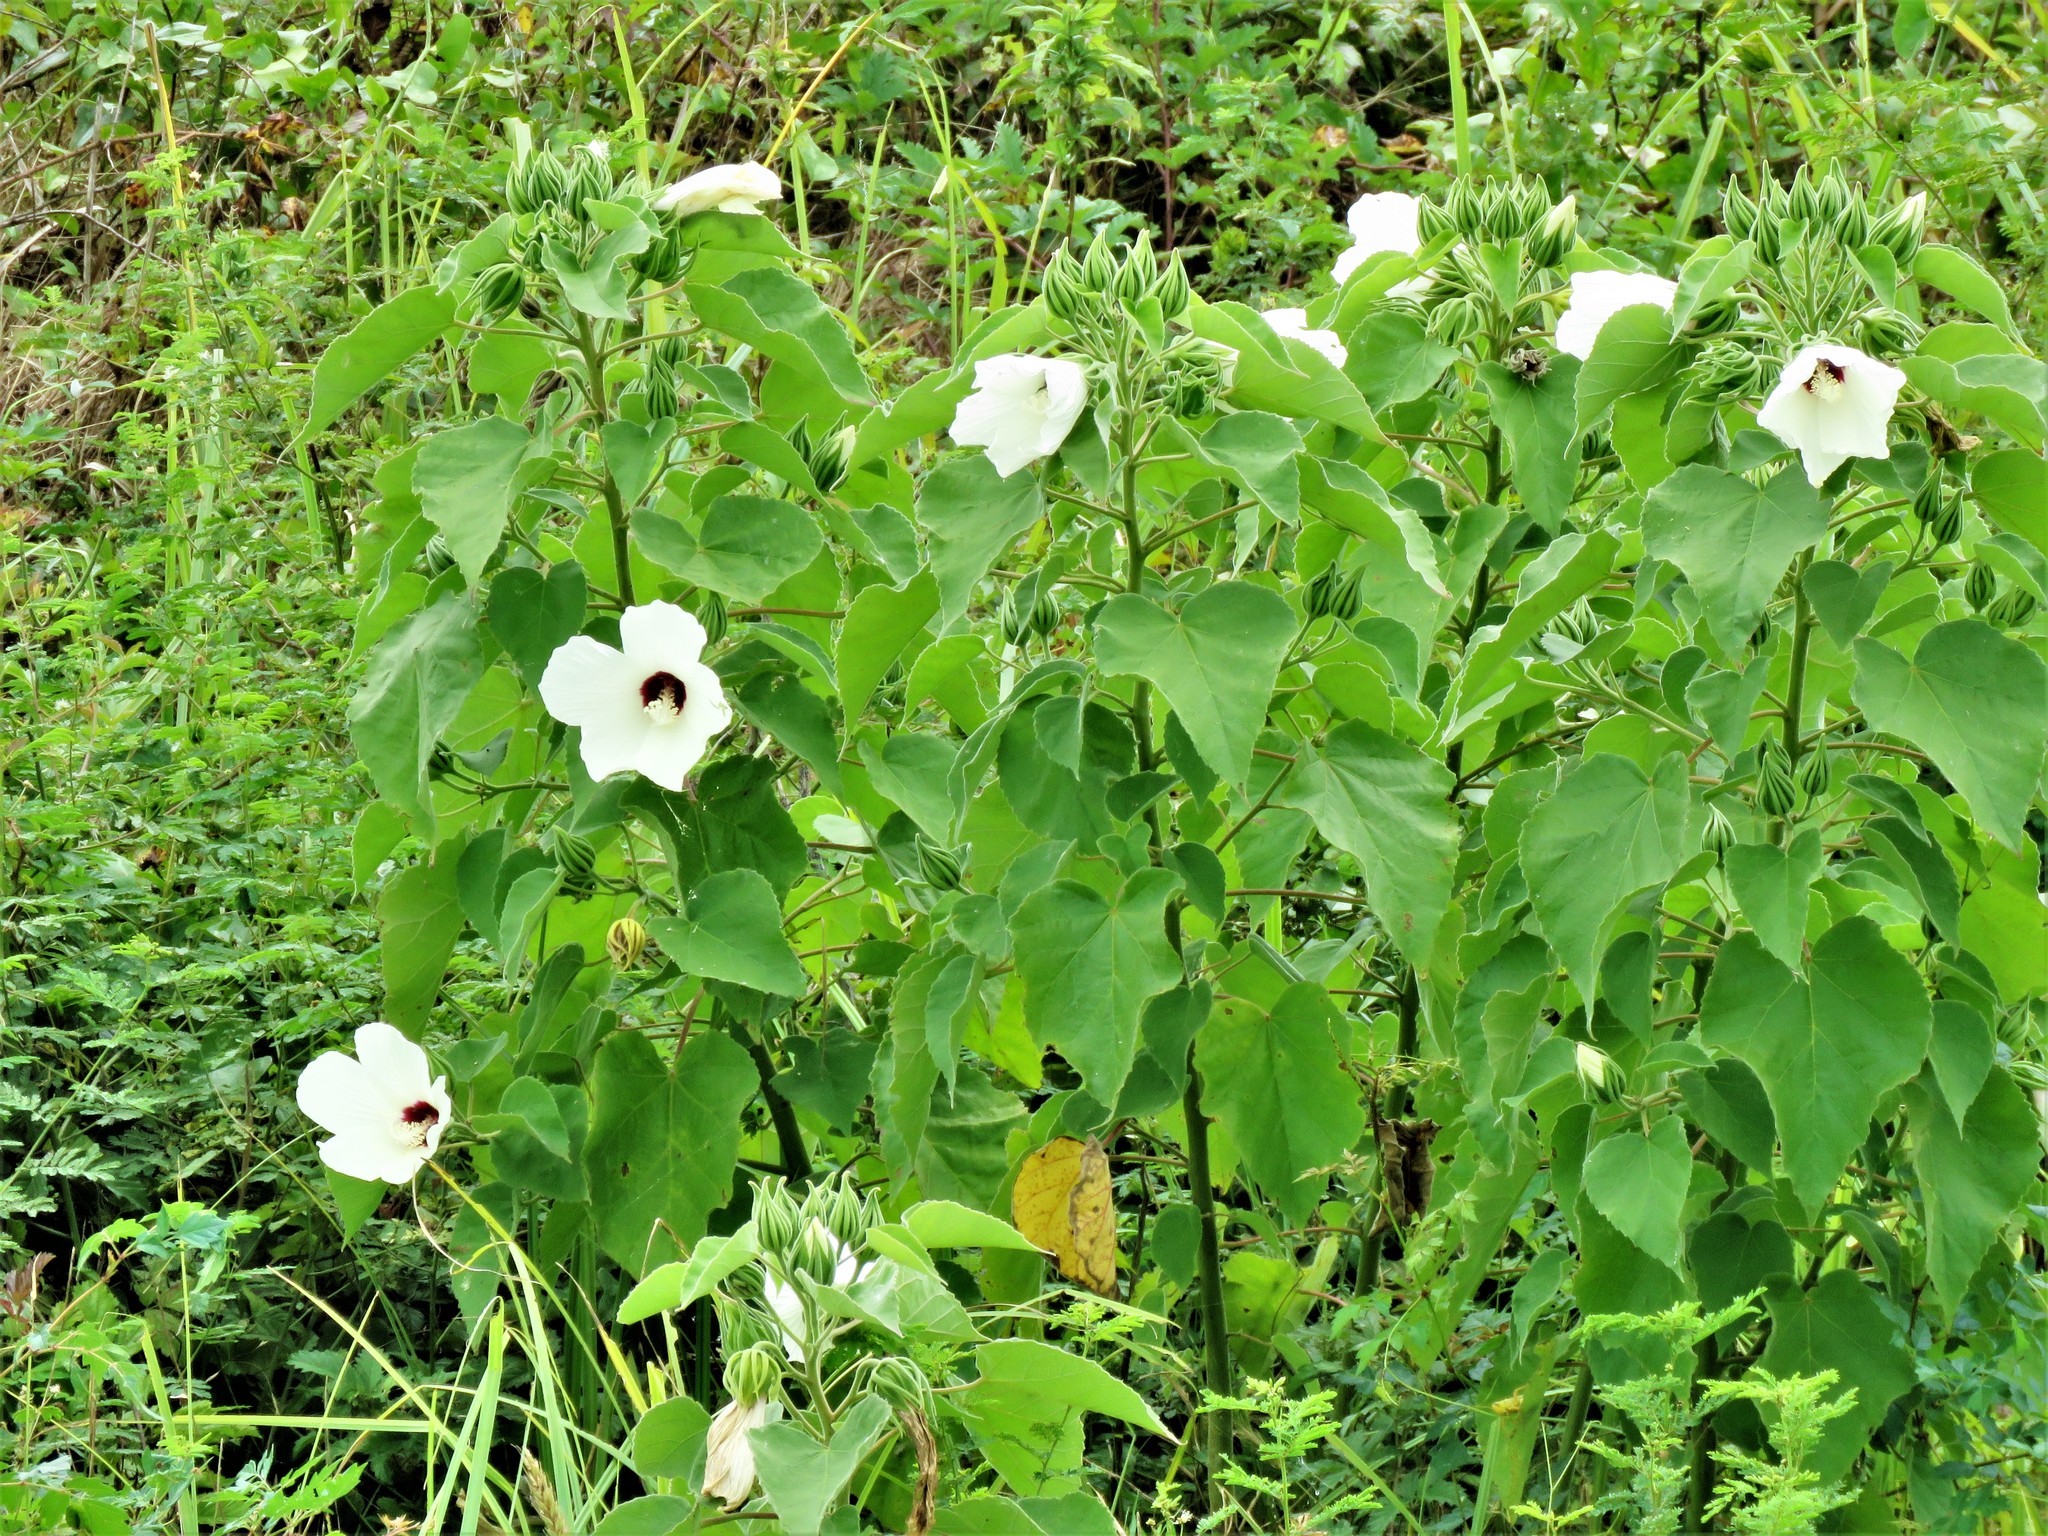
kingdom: Plantae
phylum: Tracheophyta
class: Magnoliopsida
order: Malvales
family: Malvaceae
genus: Hibiscus
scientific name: Hibiscus moscheutos
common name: Common rose-mallow
